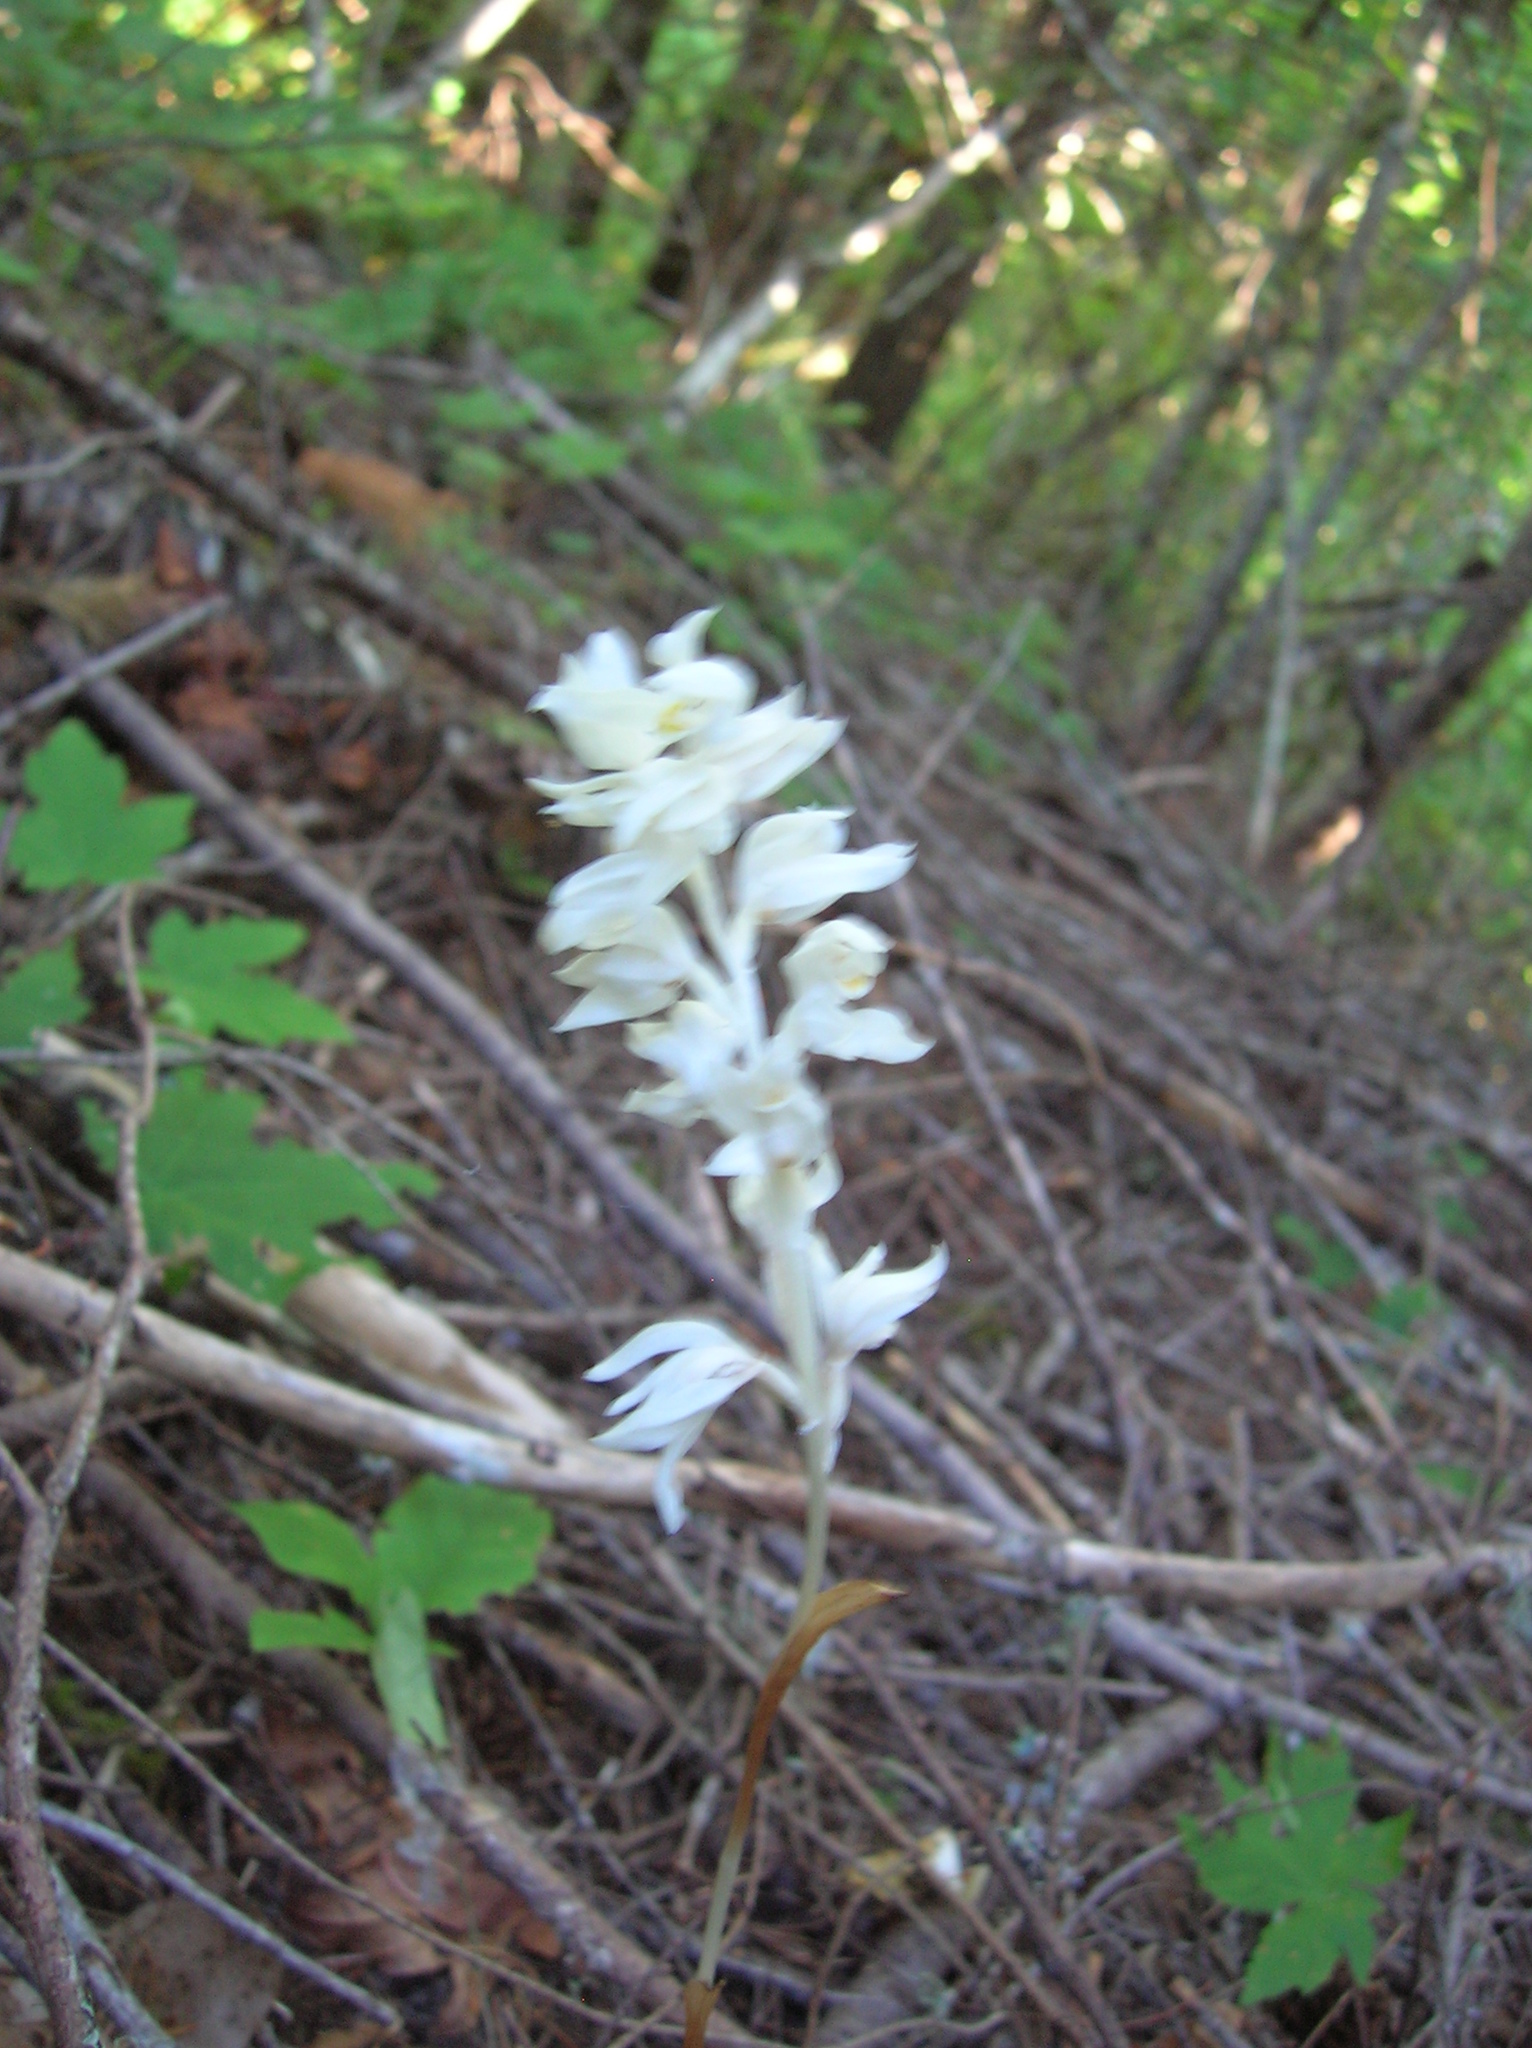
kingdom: Plantae
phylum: Tracheophyta
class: Liliopsida
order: Asparagales
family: Orchidaceae
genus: Cephalanthera
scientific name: Cephalanthera austiniae
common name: Phantom orchid
